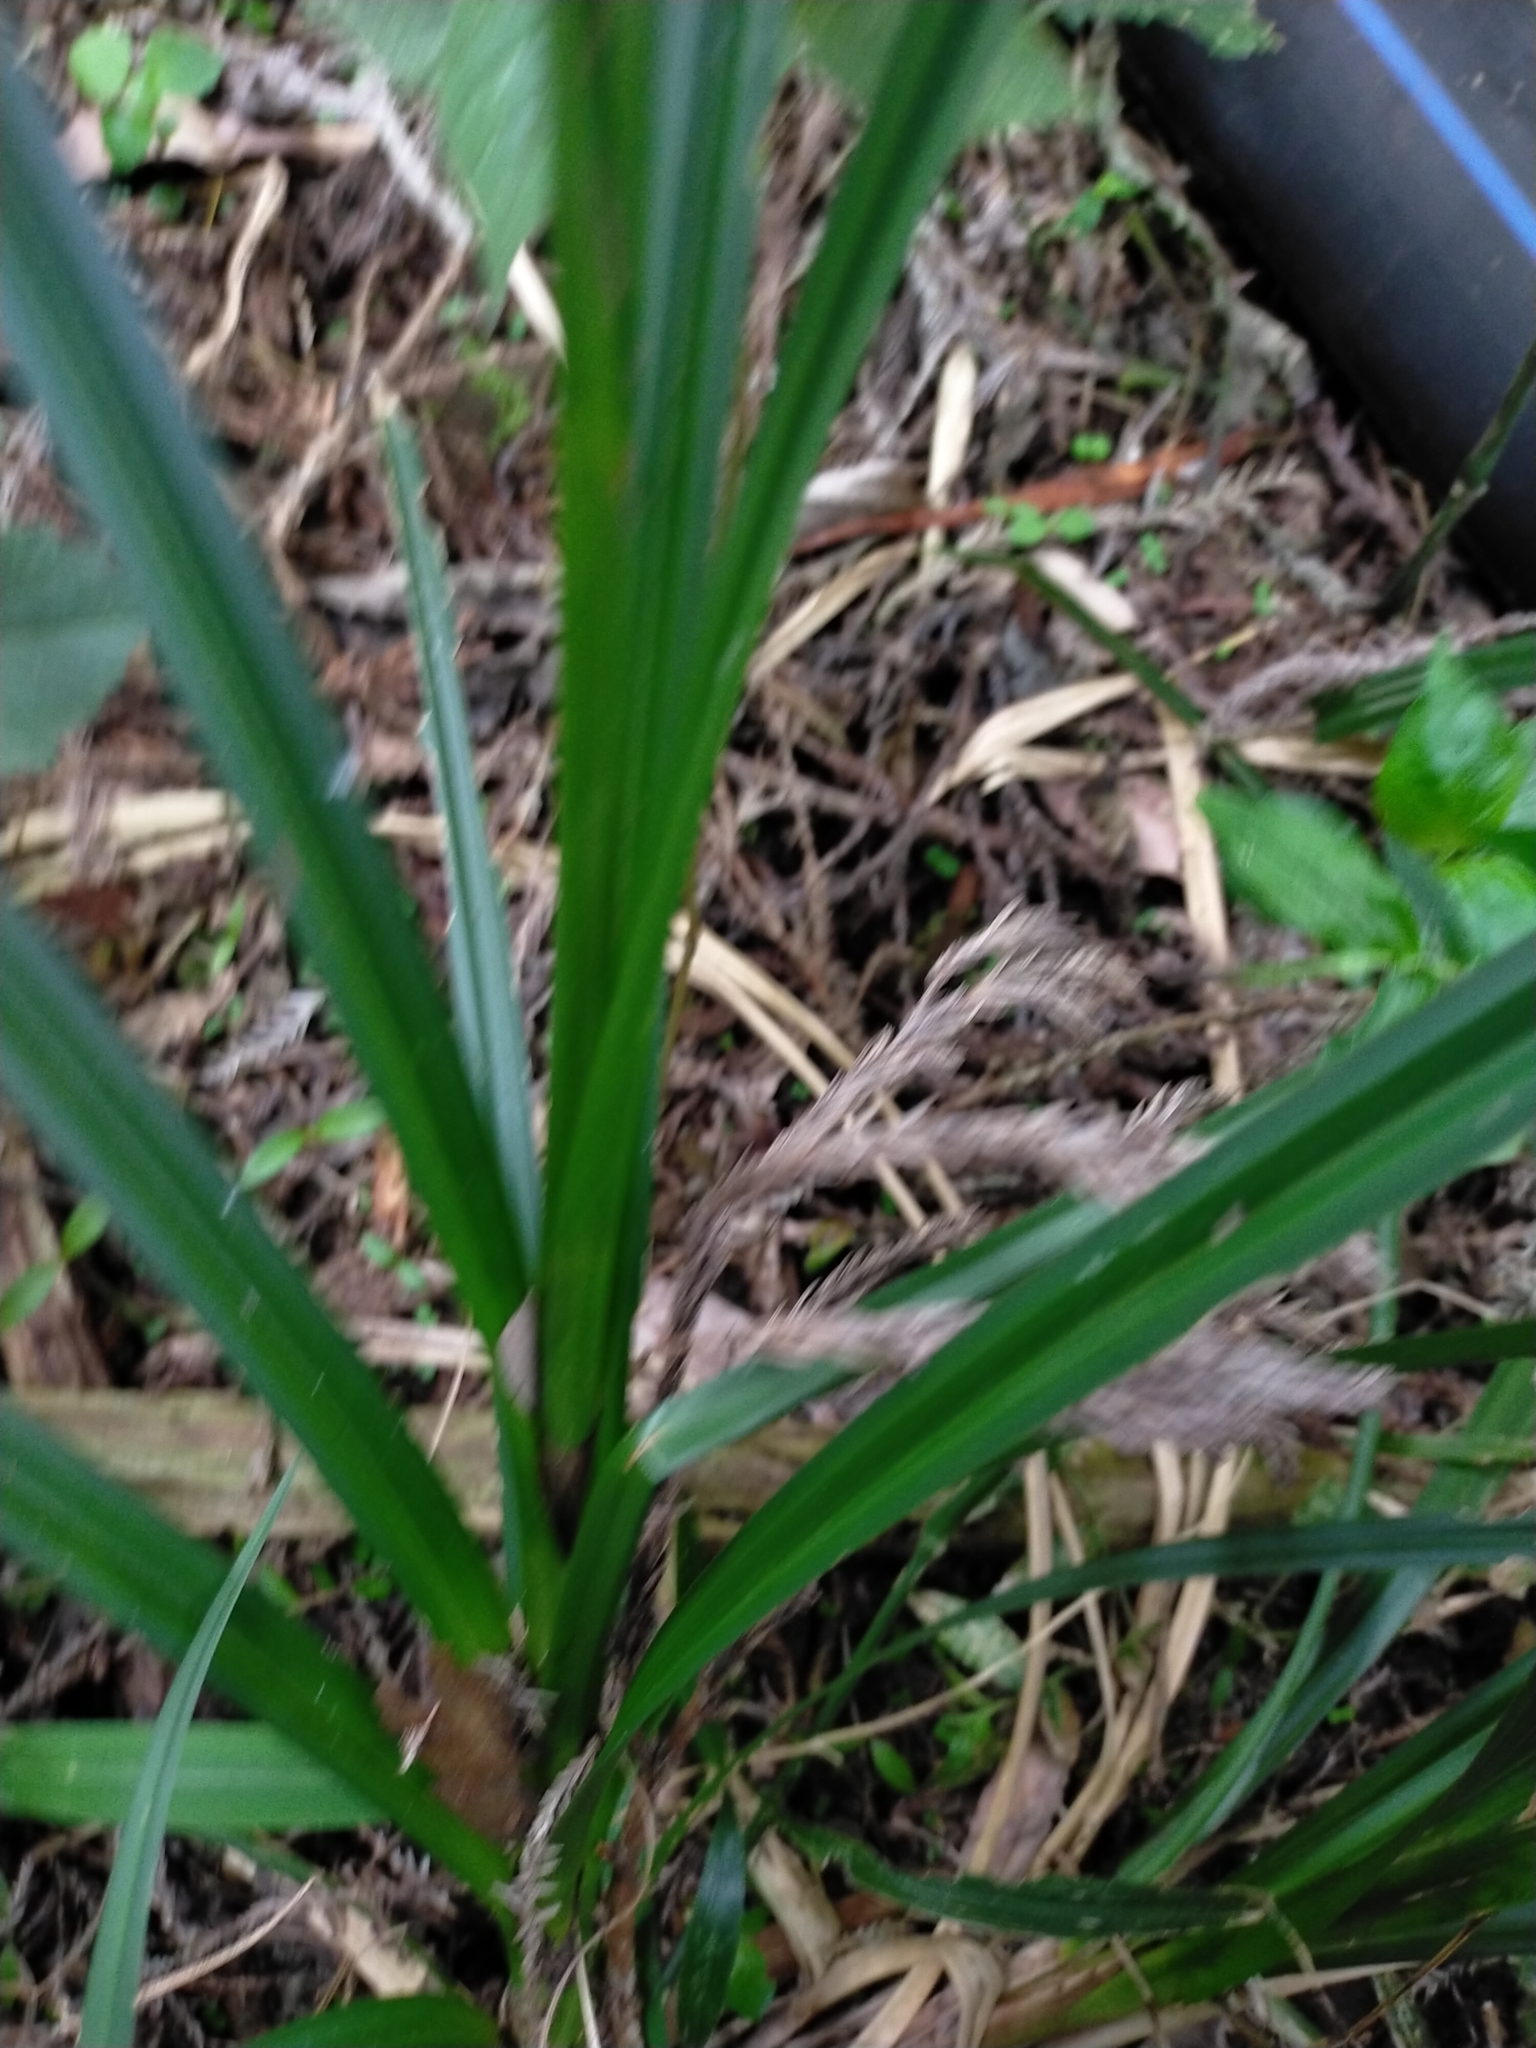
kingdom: Plantae
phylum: Tracheophyta
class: Liliopsida
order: Poales
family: Cyperaceae
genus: Carex
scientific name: Carex baccans
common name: Crimson seeded sedge
